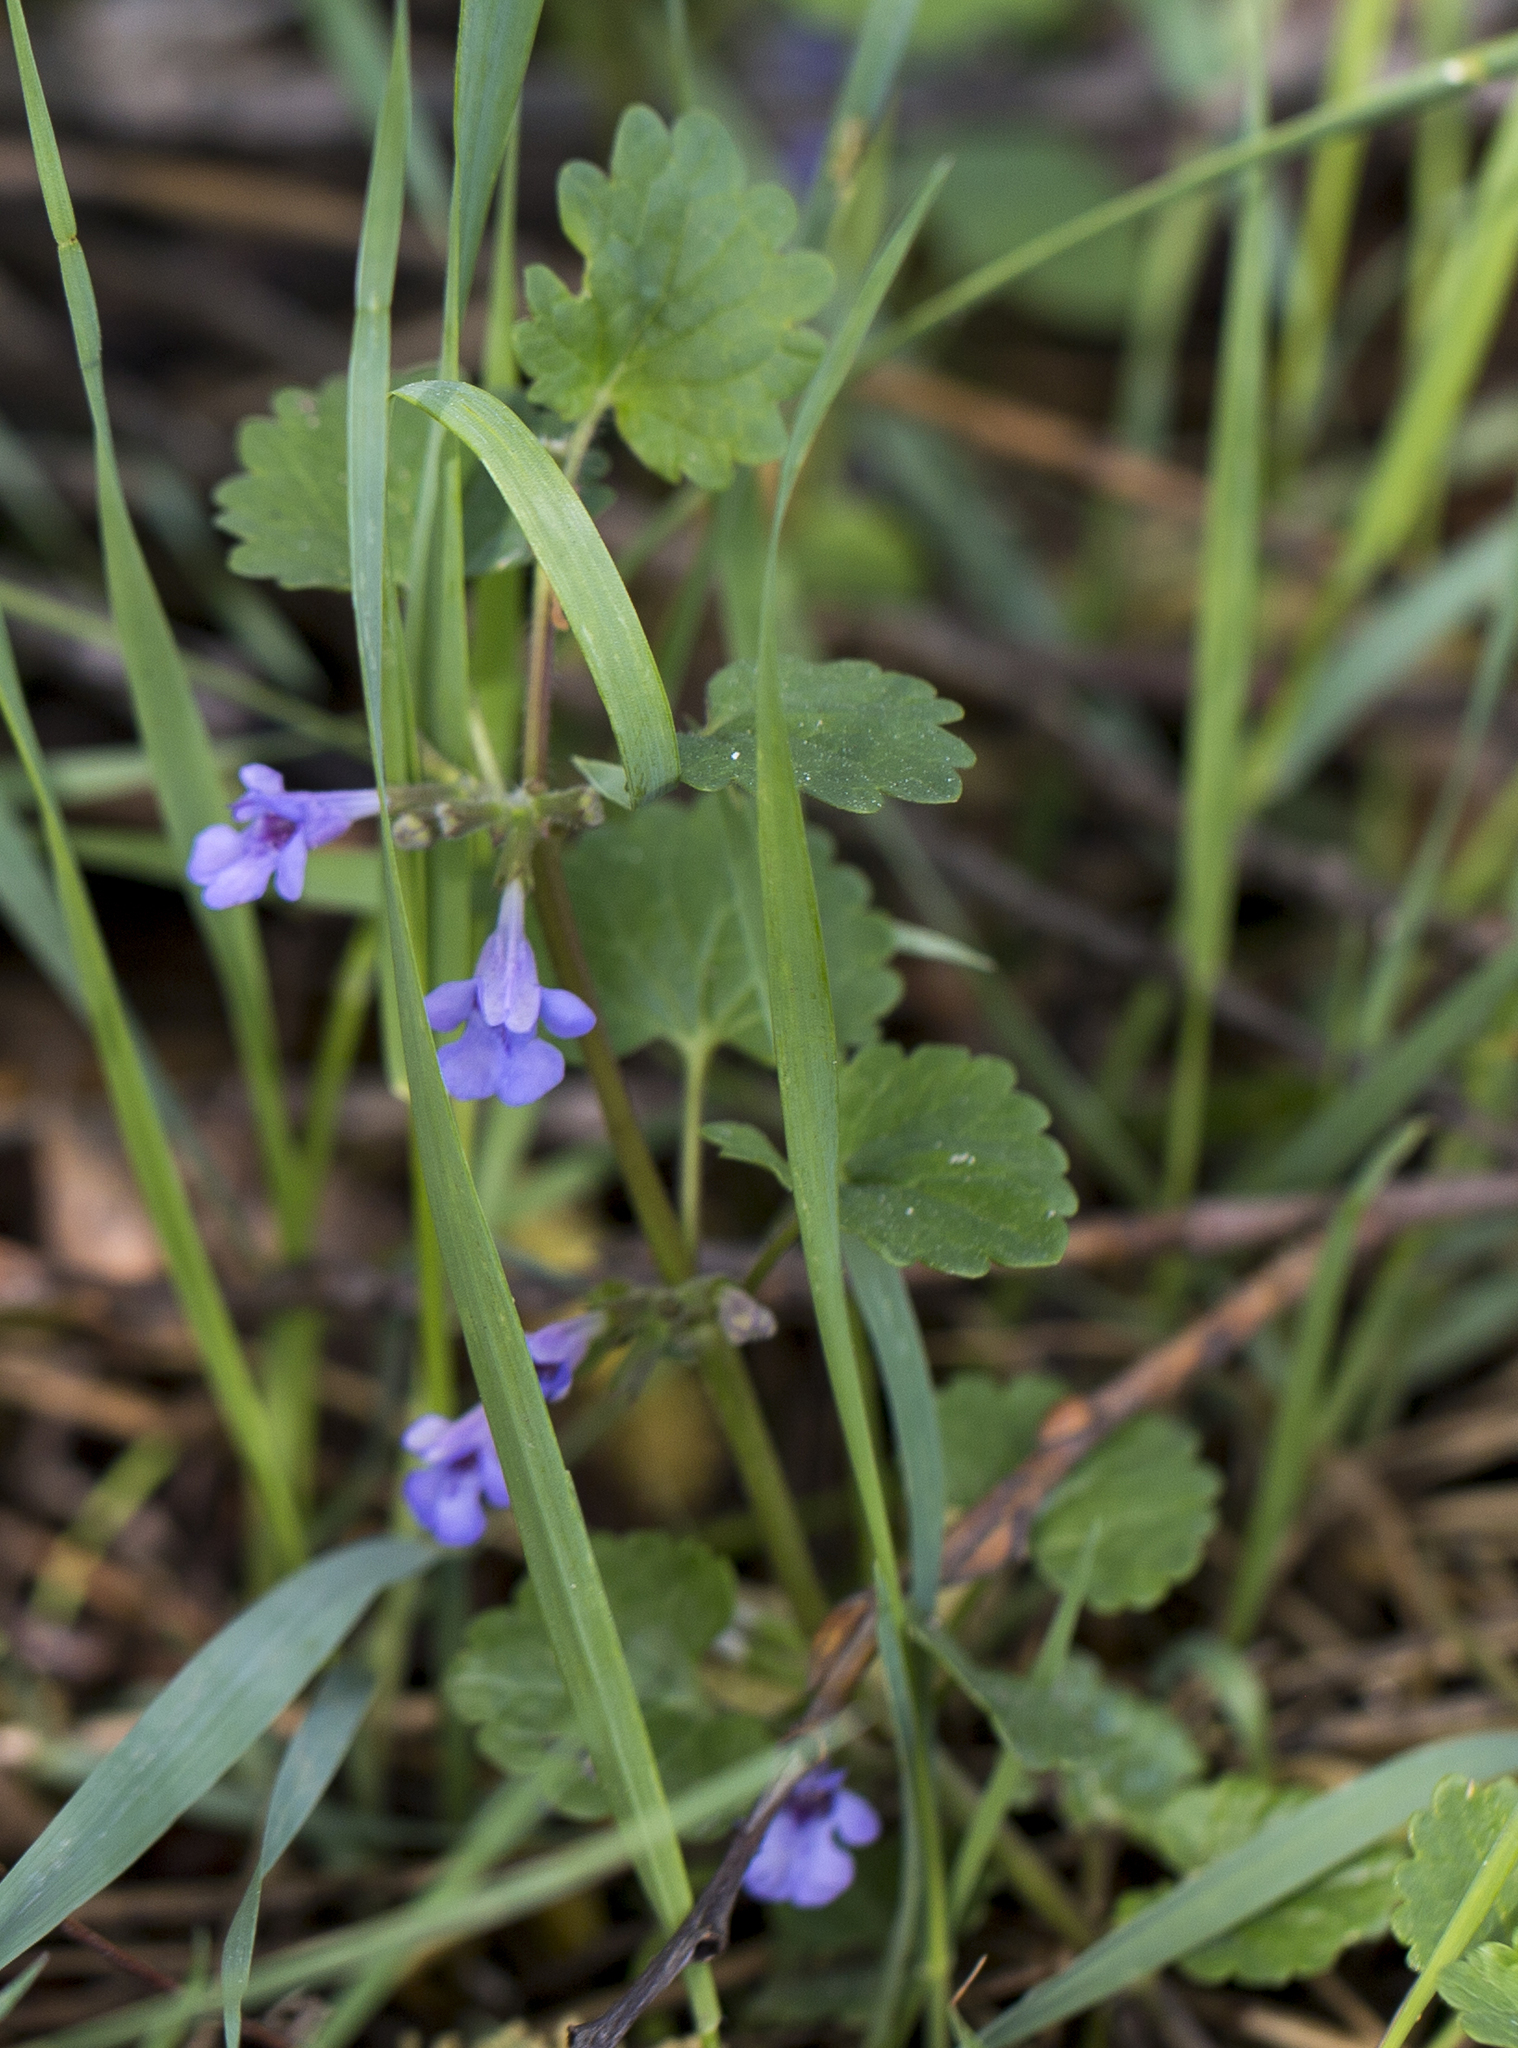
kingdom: Plantae
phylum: Tracheophyta
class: Magnoliopsida
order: Lamiales
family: Lamiaceae
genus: Glechoma
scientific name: Glechoma hederacea
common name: Ground ivy
